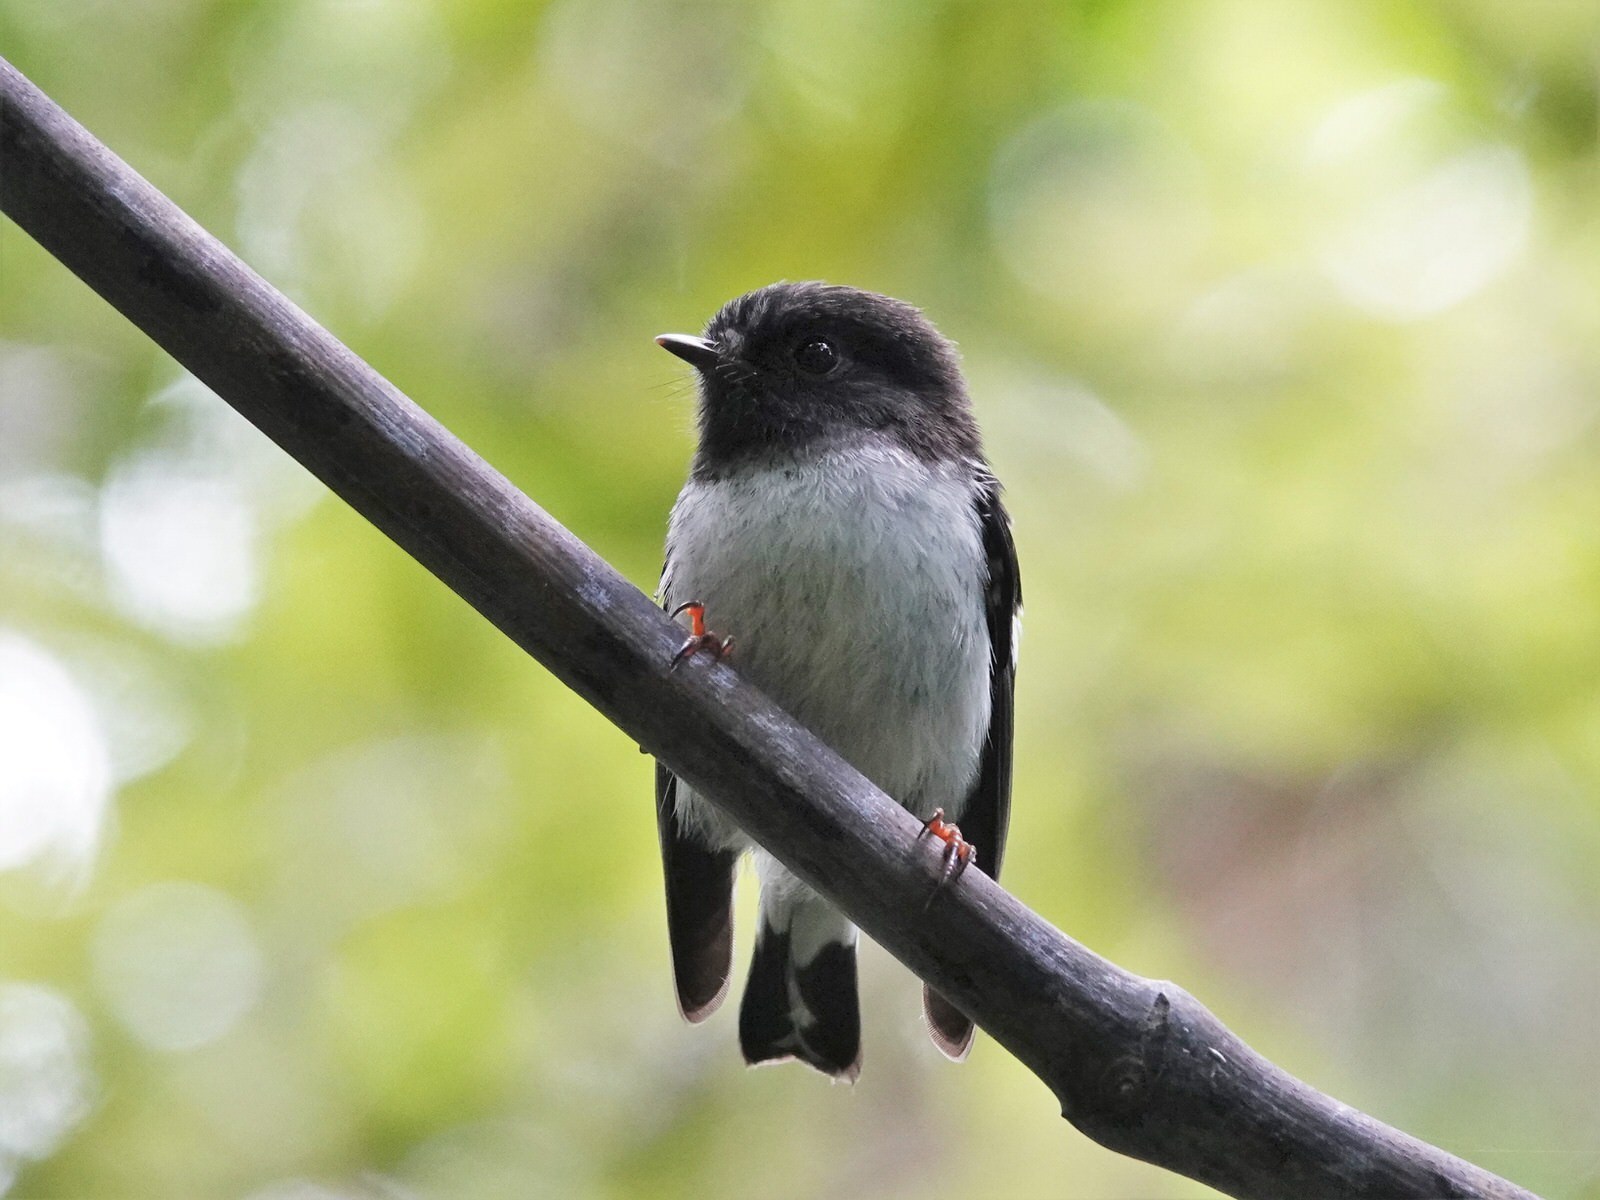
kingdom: Animalia
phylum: Chordata
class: Aves
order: Passeriformes
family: Petroicidae
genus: Petroica
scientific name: Petroica macrocephala
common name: Tomtit
